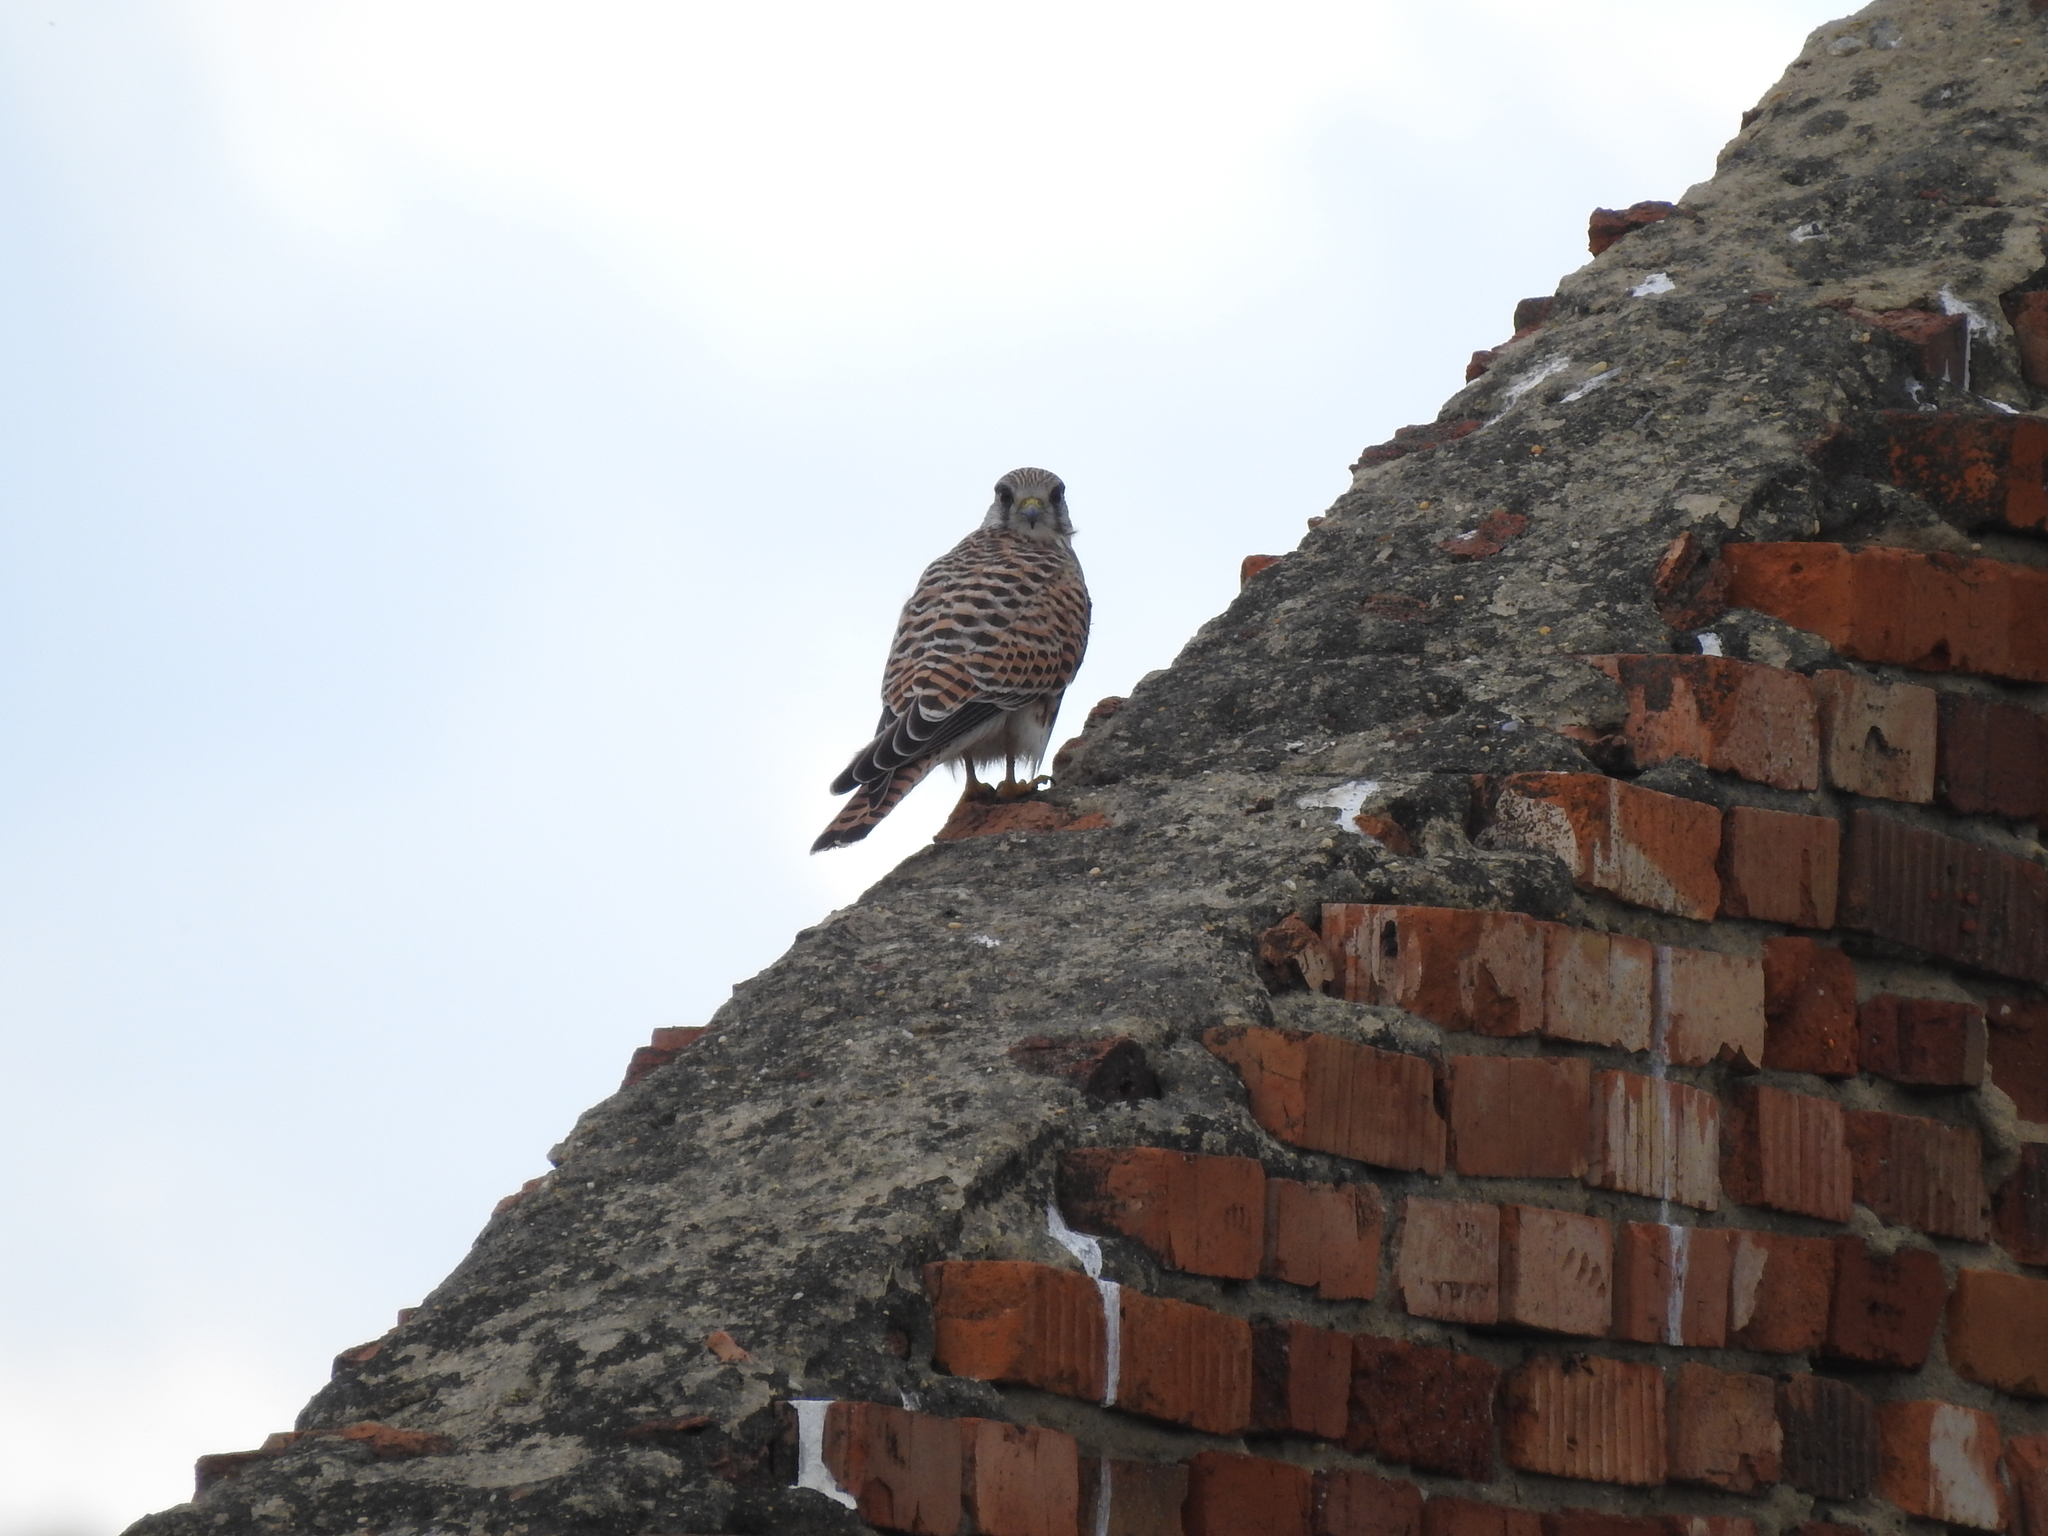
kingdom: Animalia
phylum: Chordata
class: Aves
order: Falconiformes
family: Falconidae
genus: Falco
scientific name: Falco tinnunculus
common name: Common kestrel
